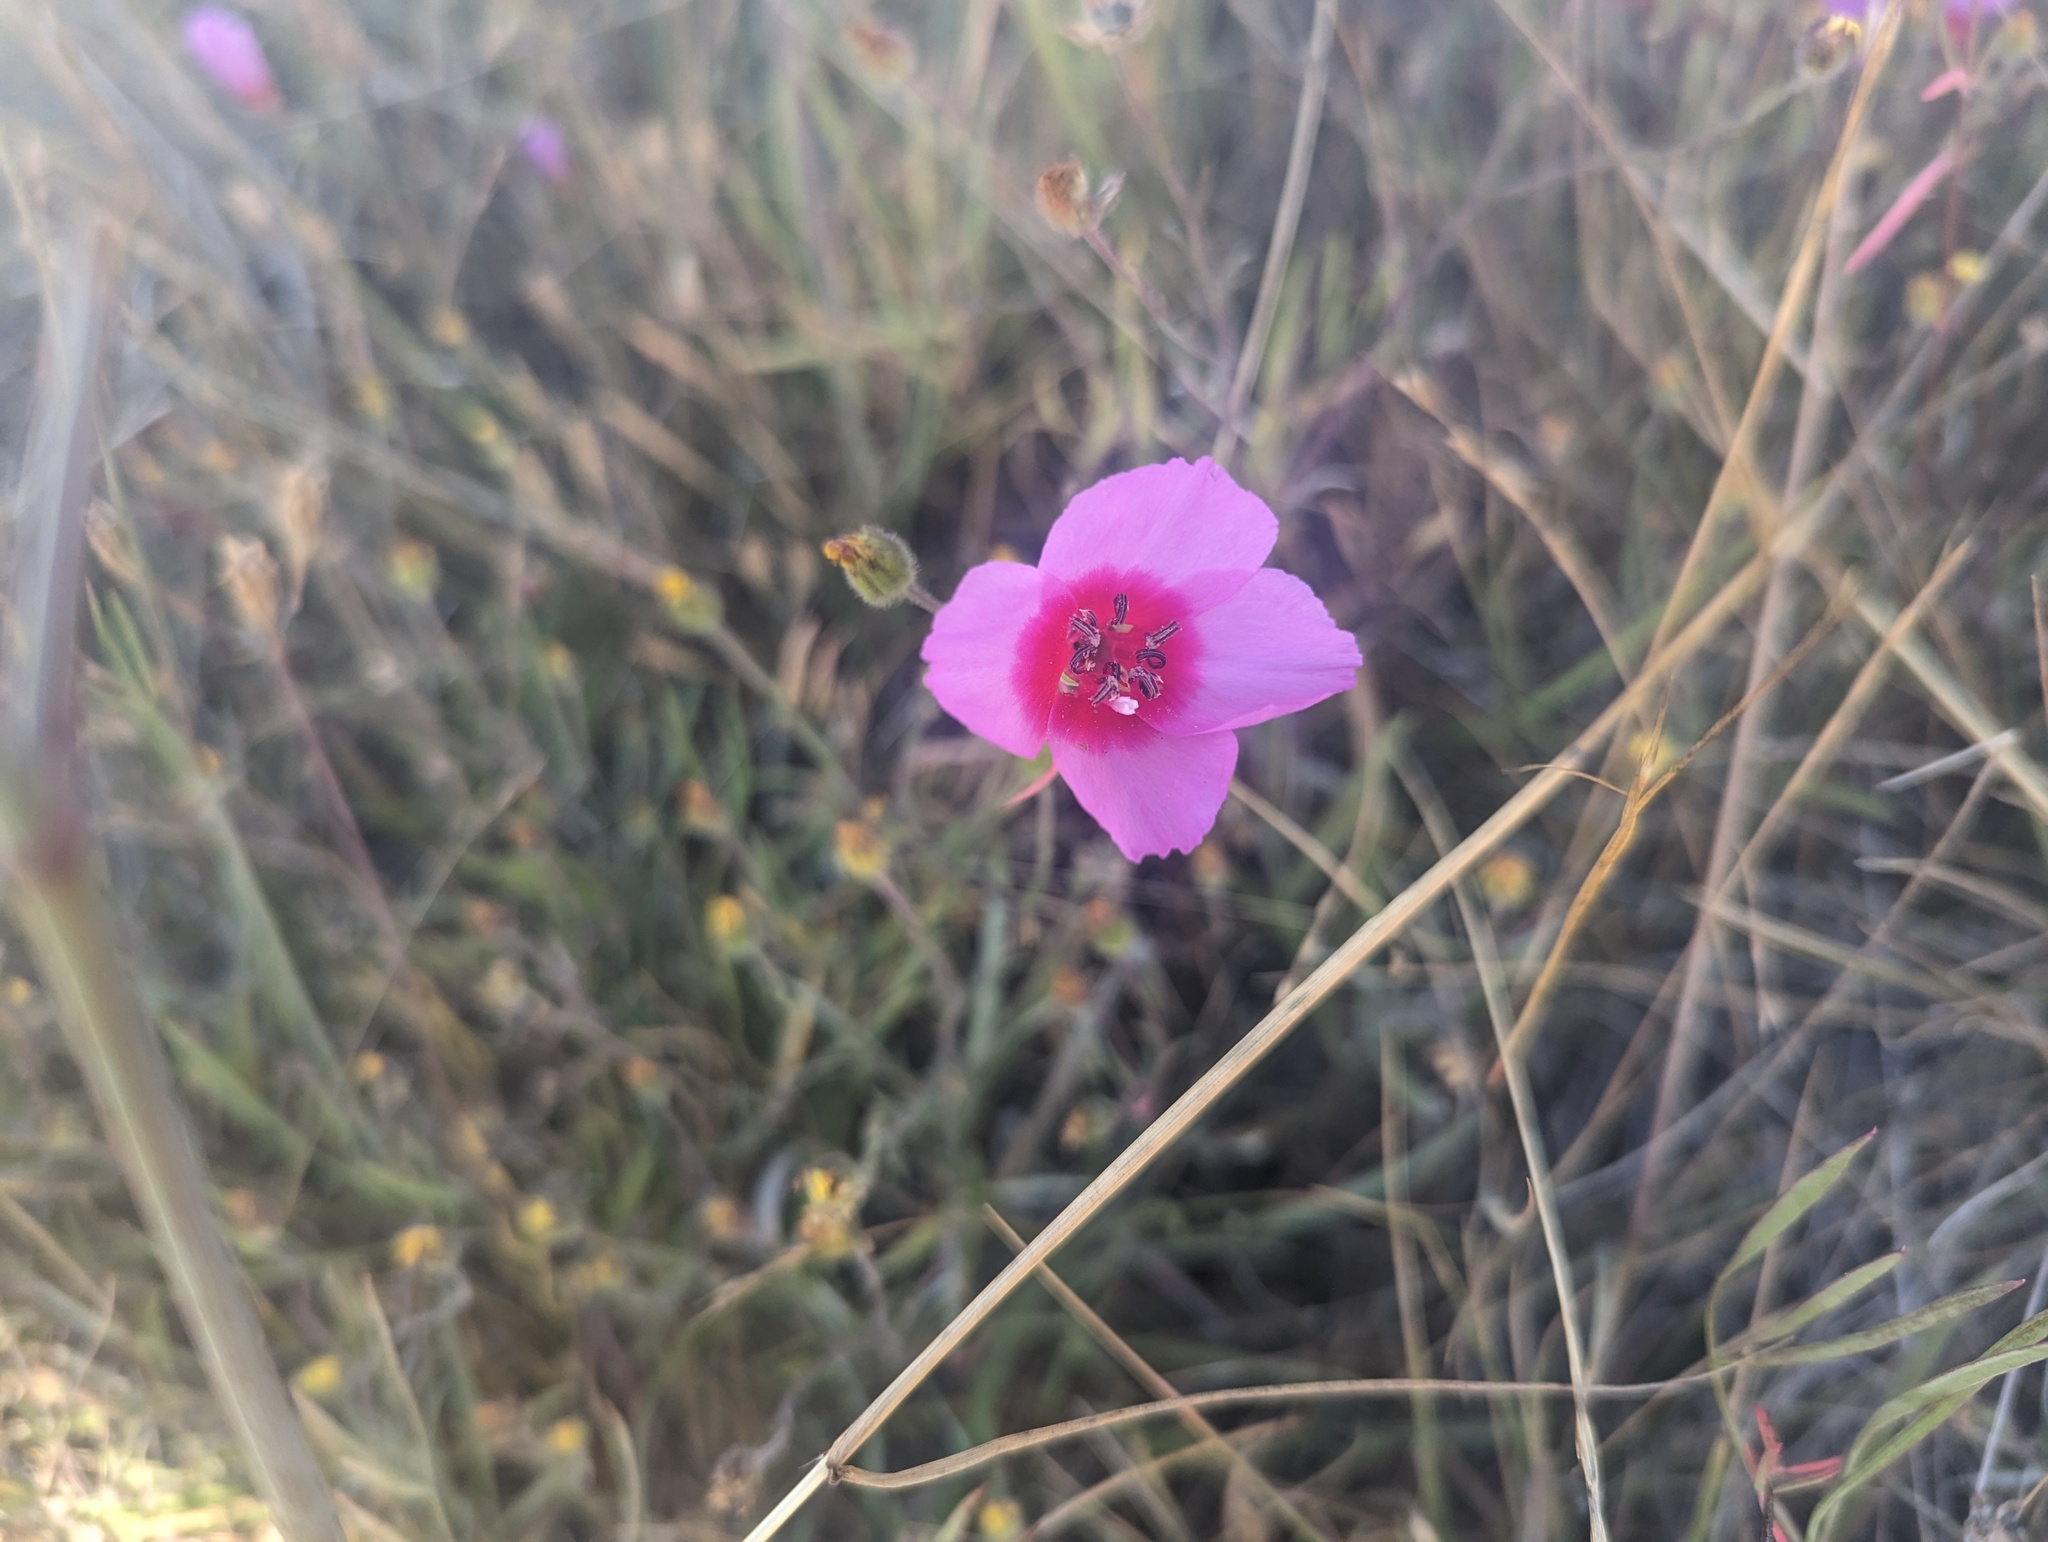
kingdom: Plantae
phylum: Tracheophyta
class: Magnoliopsida
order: Myrtales
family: Onagraceae
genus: Clarkia
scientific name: Clarkia rubicunda
